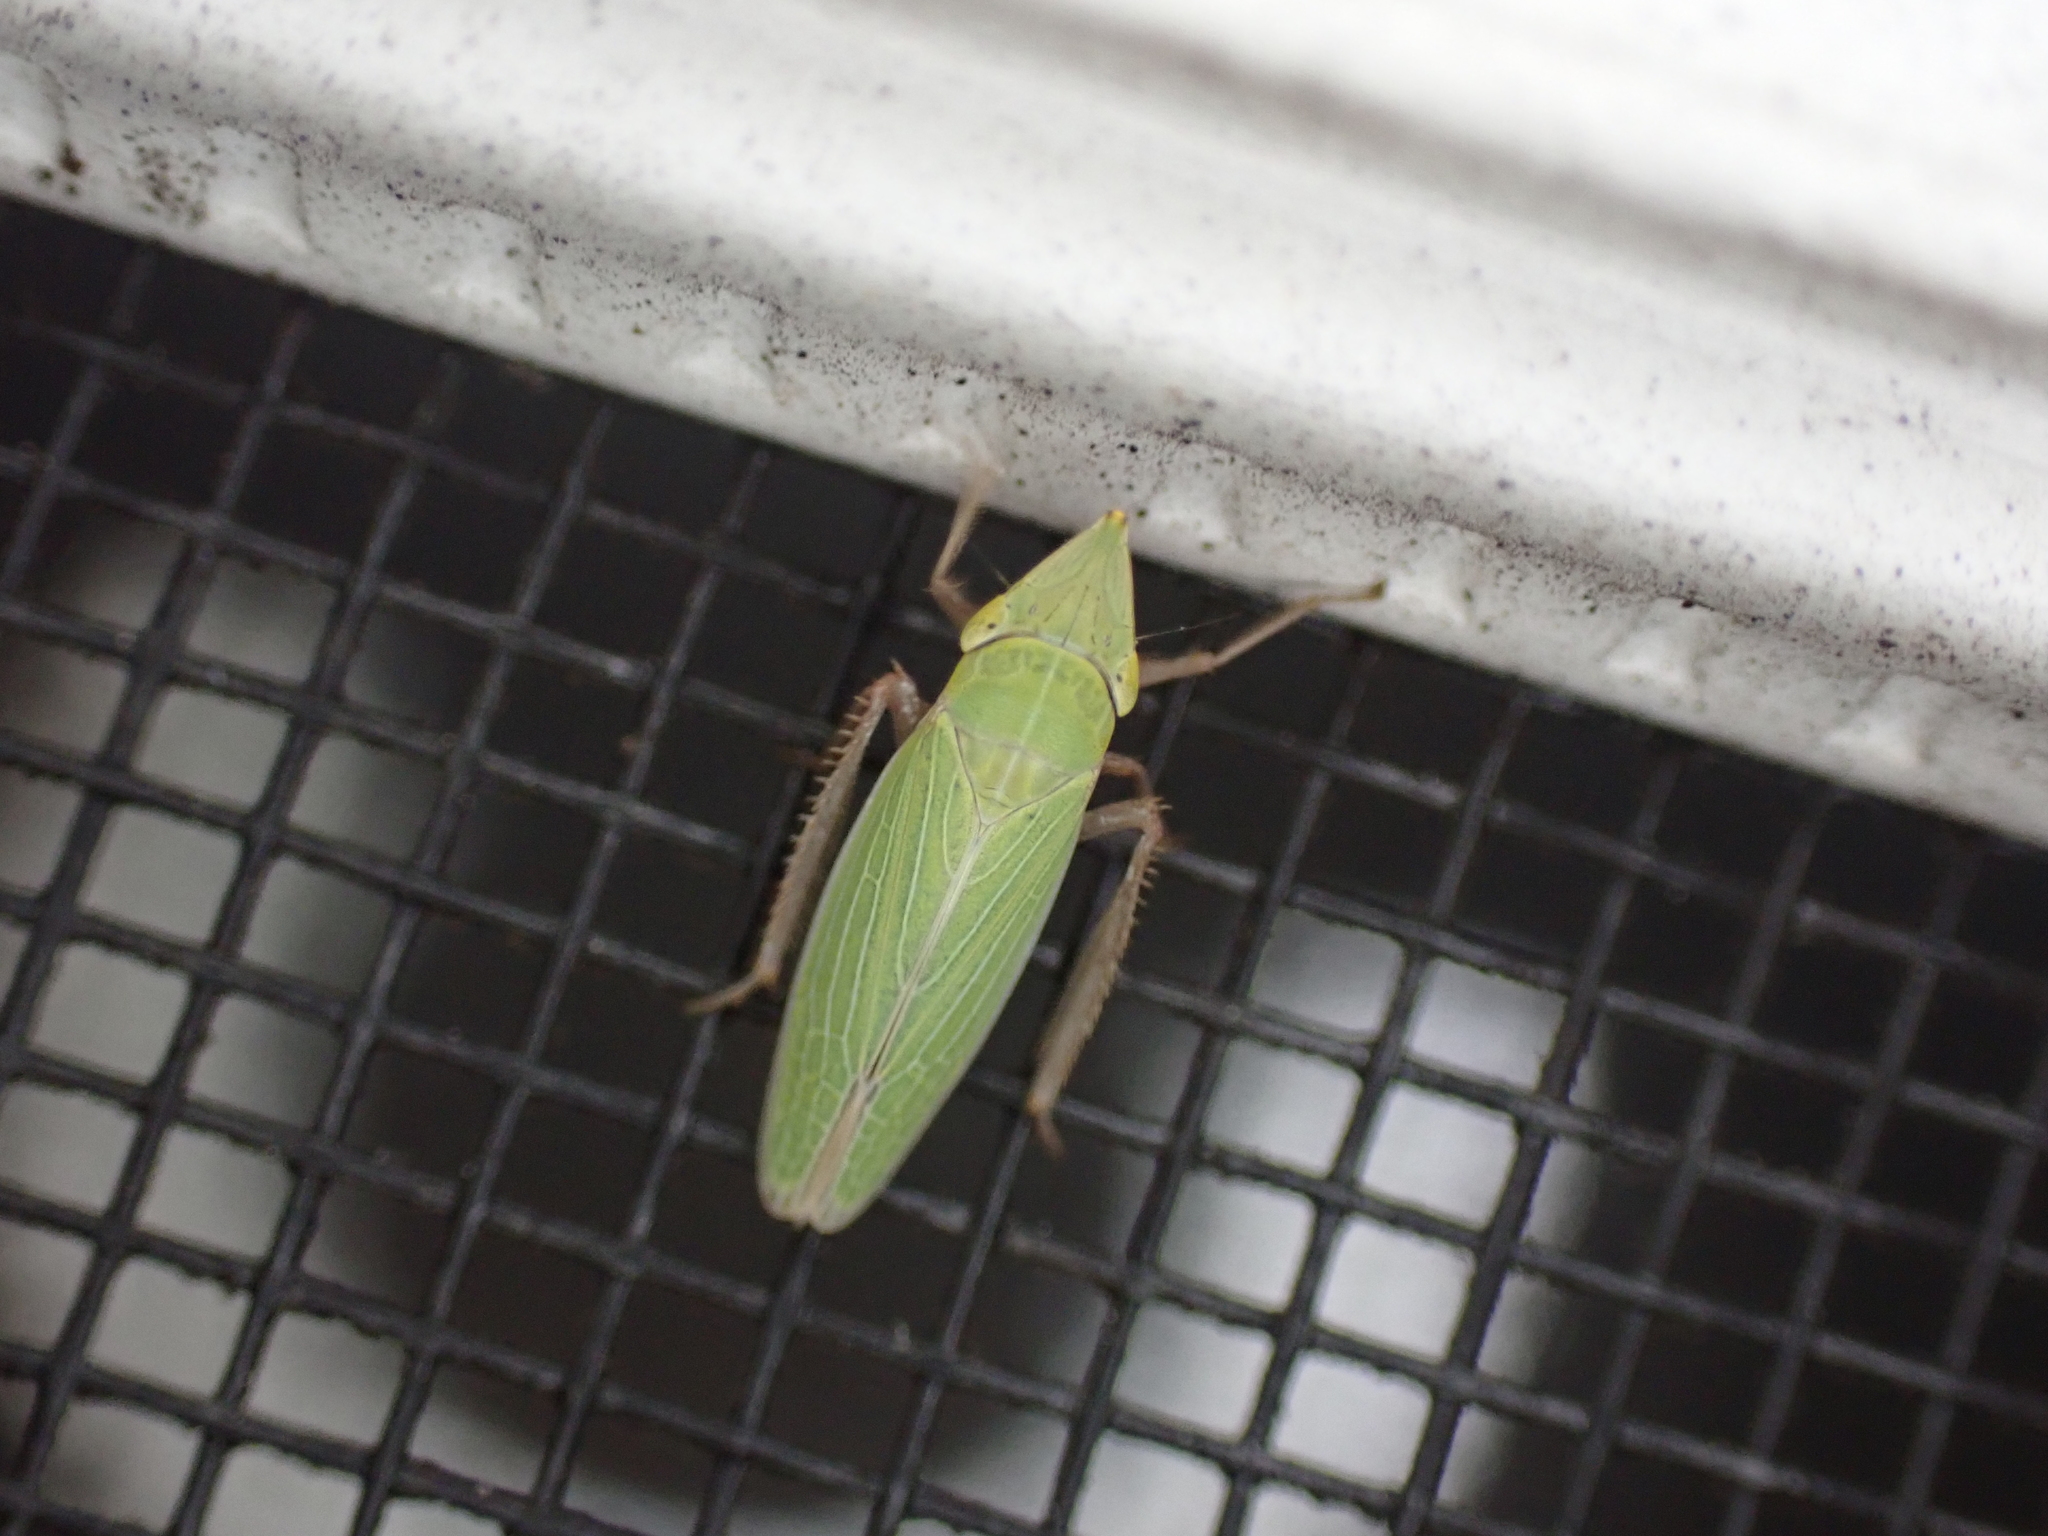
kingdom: Animalia
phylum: Arthropoda
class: Insecta
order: Hemiptera
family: Cicadellidae
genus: Draeculacephala
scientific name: Draeculacephala antica
